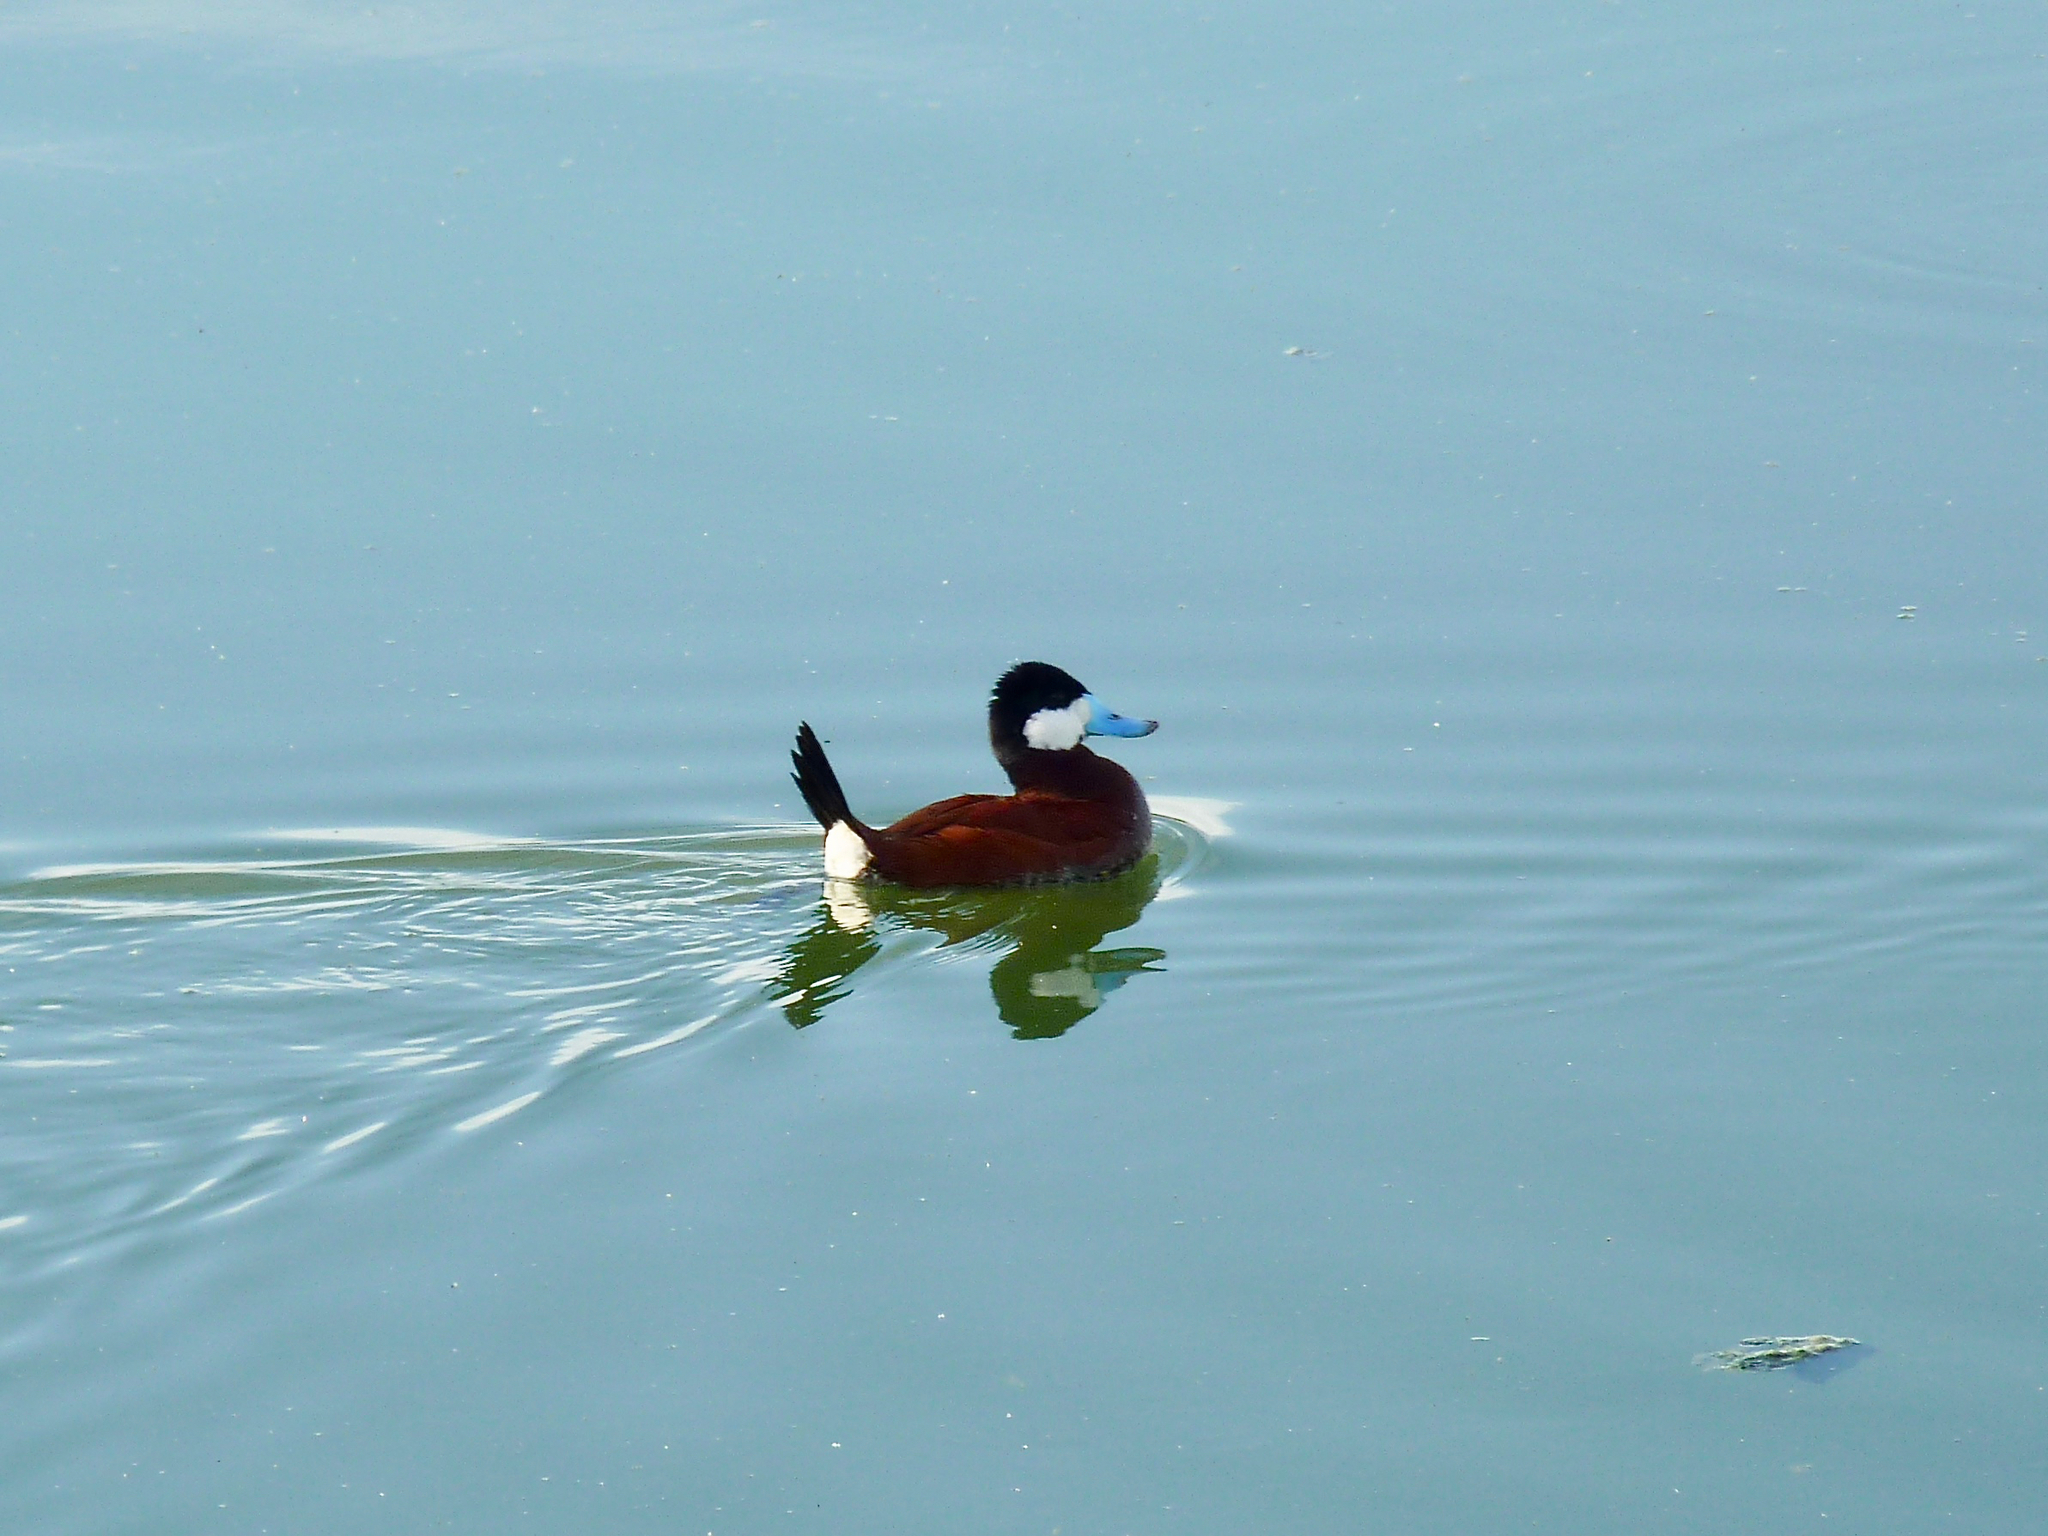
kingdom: Animalia
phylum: Chordata
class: Aves
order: Anseriformes
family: Anatidae
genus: Oxyura
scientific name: Oxyura jamaicensis
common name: Ruddy duck
